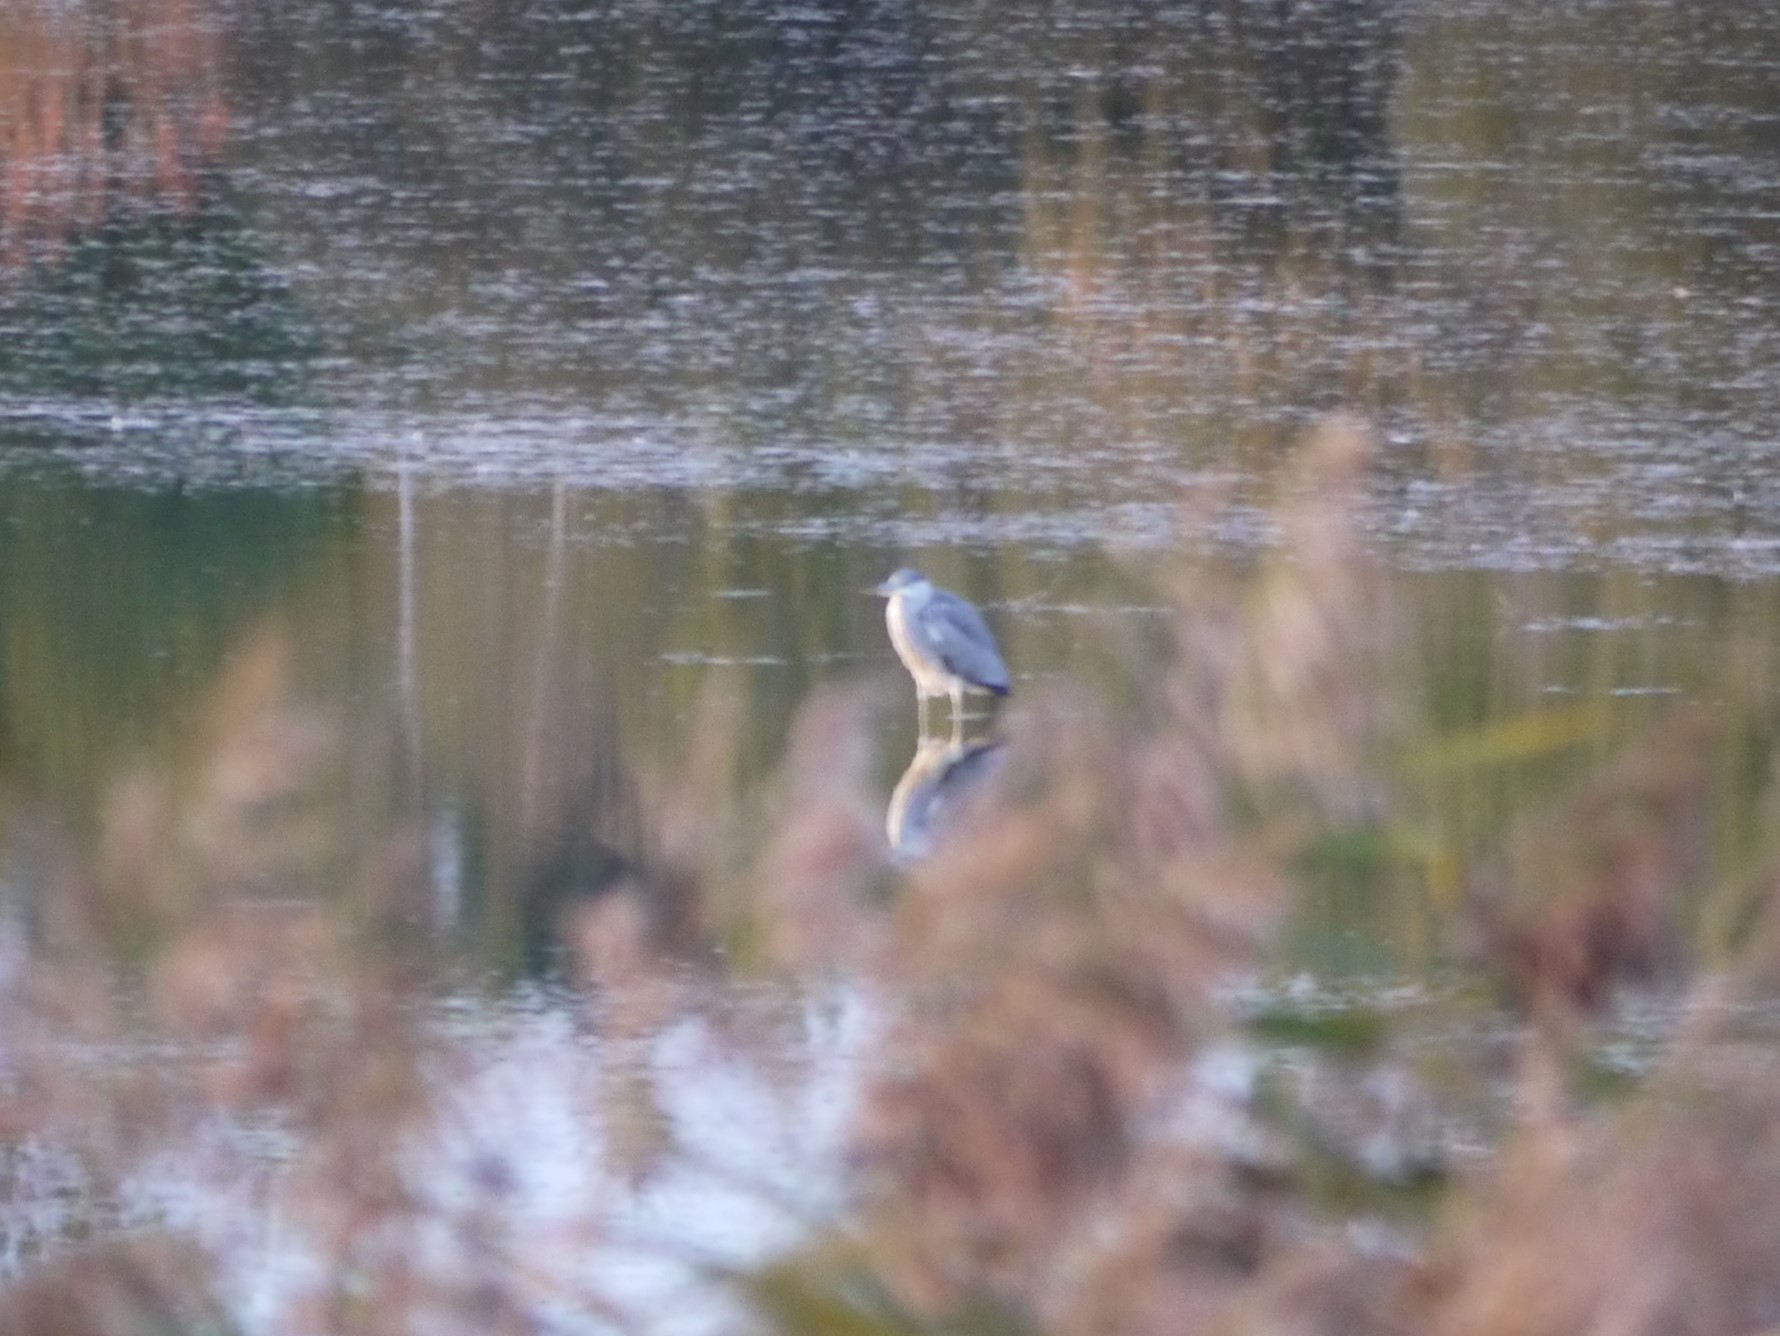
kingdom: Animalia
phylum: Chordata
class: Aves
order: Pelecaniformes
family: Ardeidae
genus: Ardea
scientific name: Ardea cinerea
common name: Grey heron
